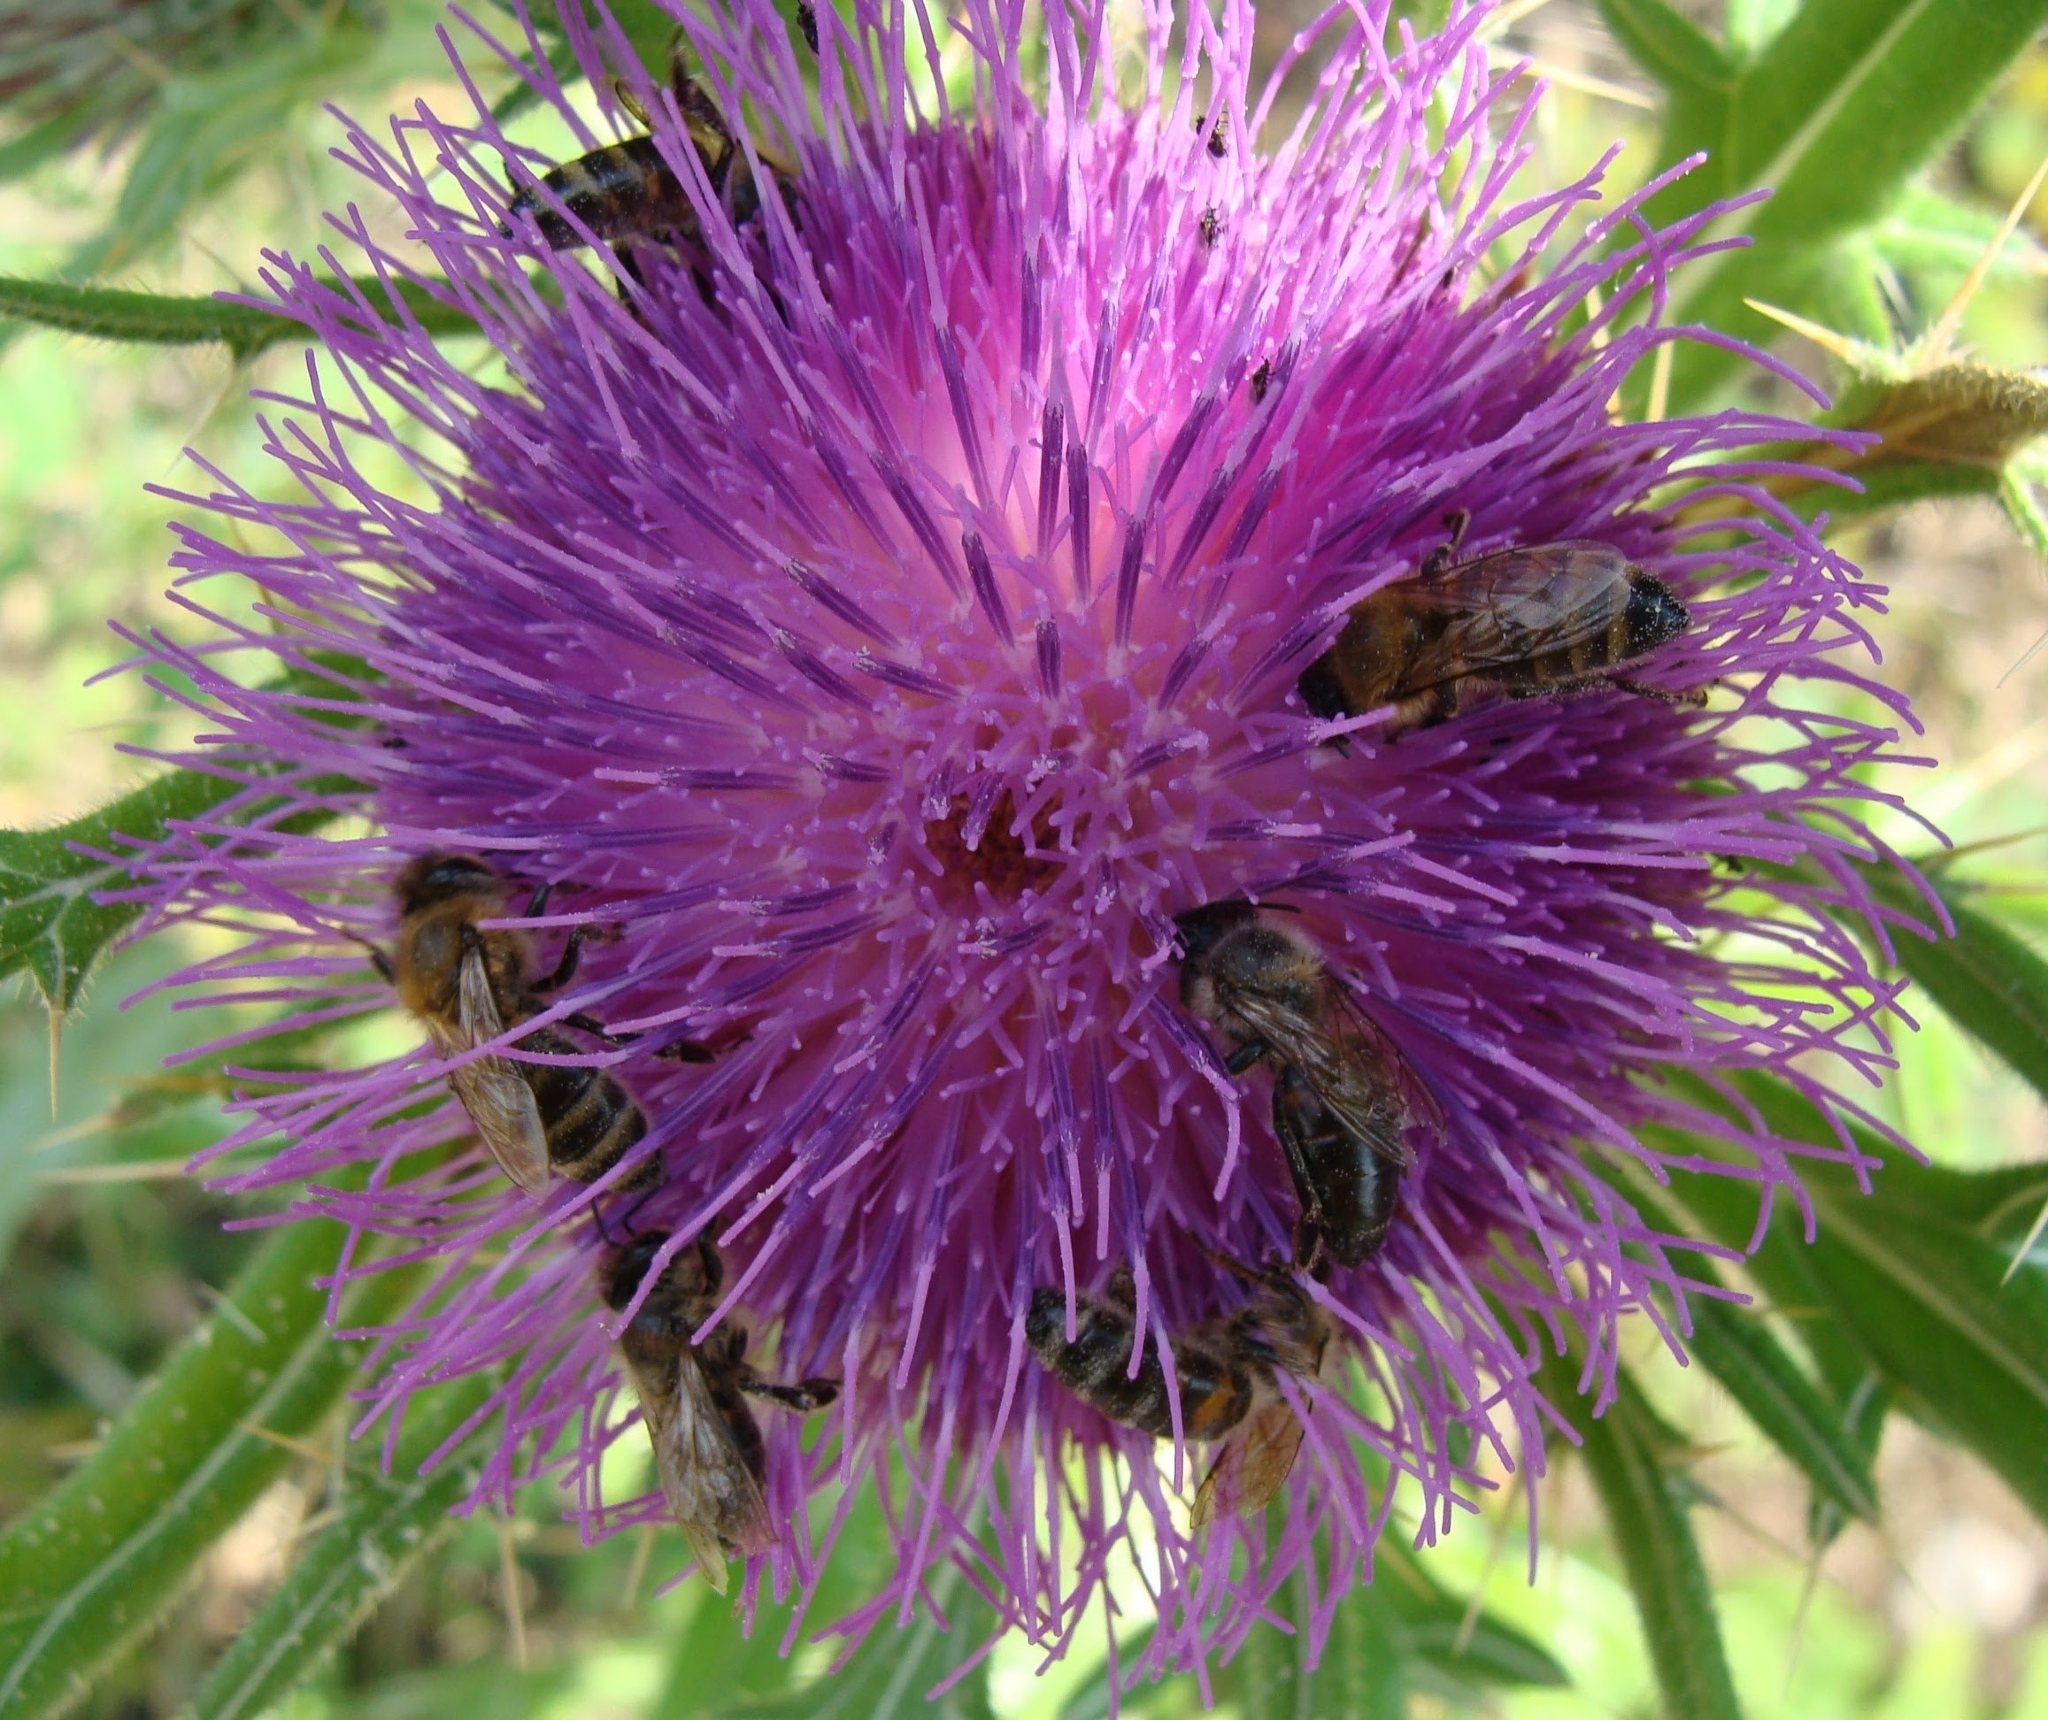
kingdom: Animalia
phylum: Arthropoda
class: Insecta
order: Hymenoptera
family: Apidae
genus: Apis
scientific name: Apis mellifera
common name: Honey bee
